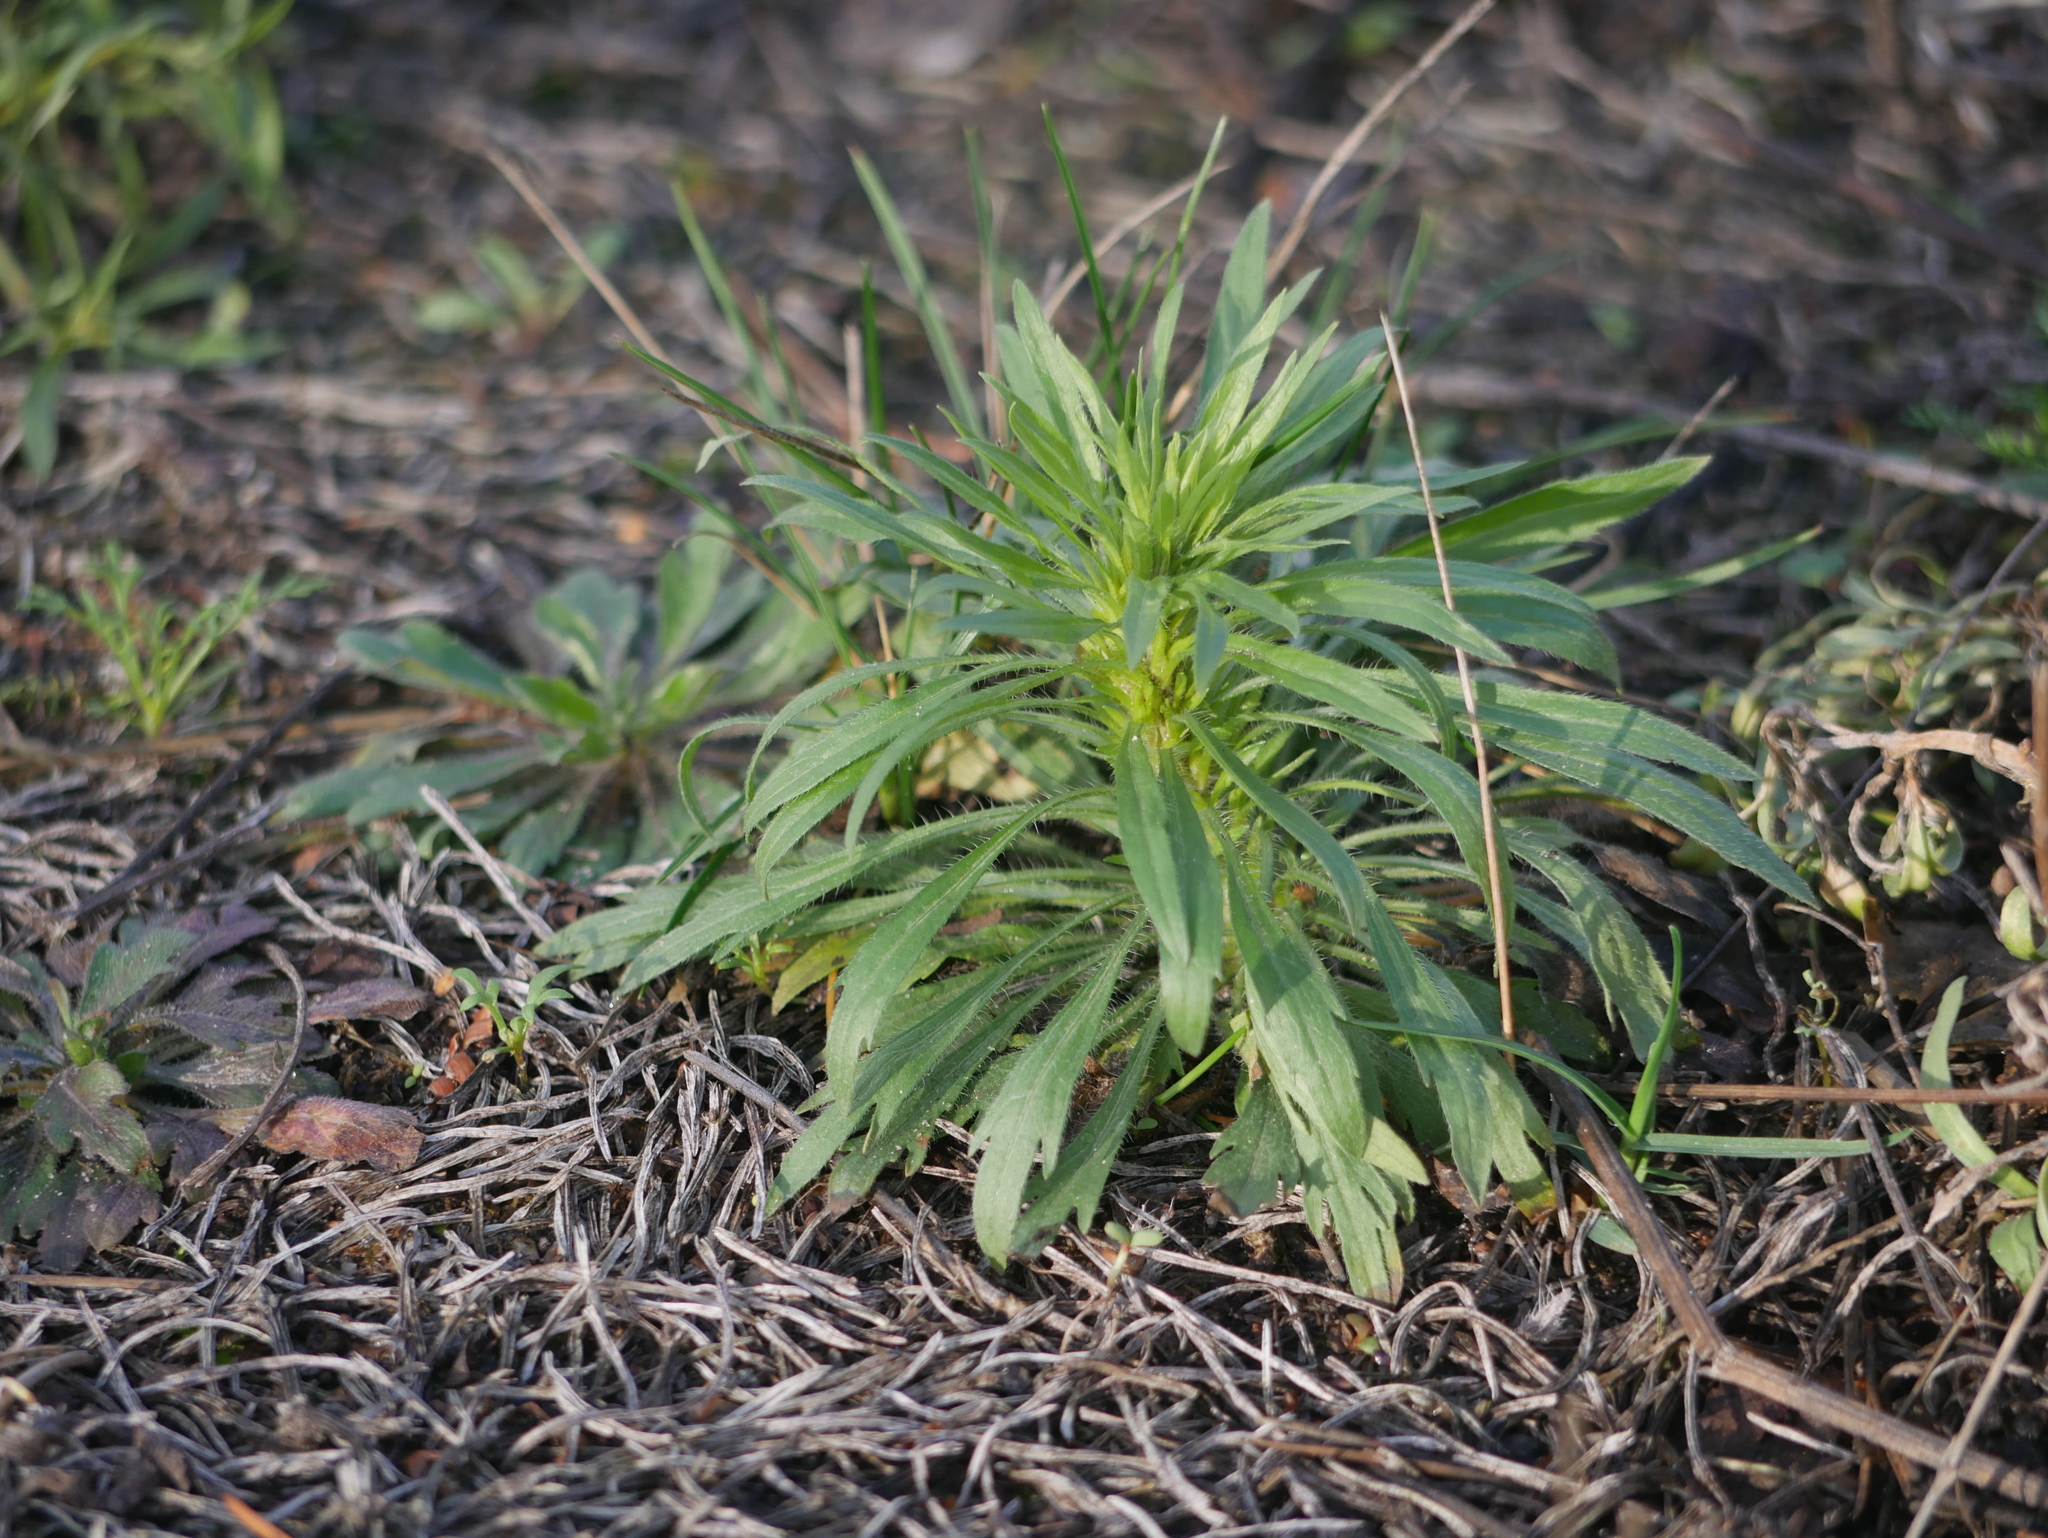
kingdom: Plantae
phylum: Tracheophyta
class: Magnoliopsida
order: Asterales
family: Asteraceae
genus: Erigeron
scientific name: Erigeron canadensis
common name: Canadian fleabane
